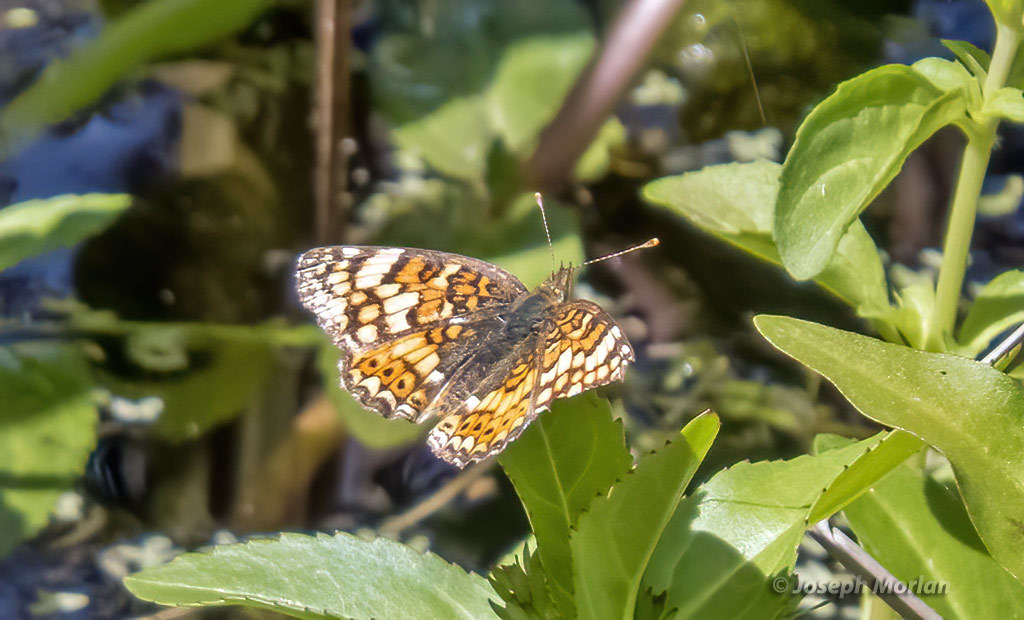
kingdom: Animalia
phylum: Arthropoda
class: Insecta
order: Lepidoptera
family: Nymphalidae
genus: Phyciodes
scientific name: Phyciodes tharos
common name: Pearl crescent
